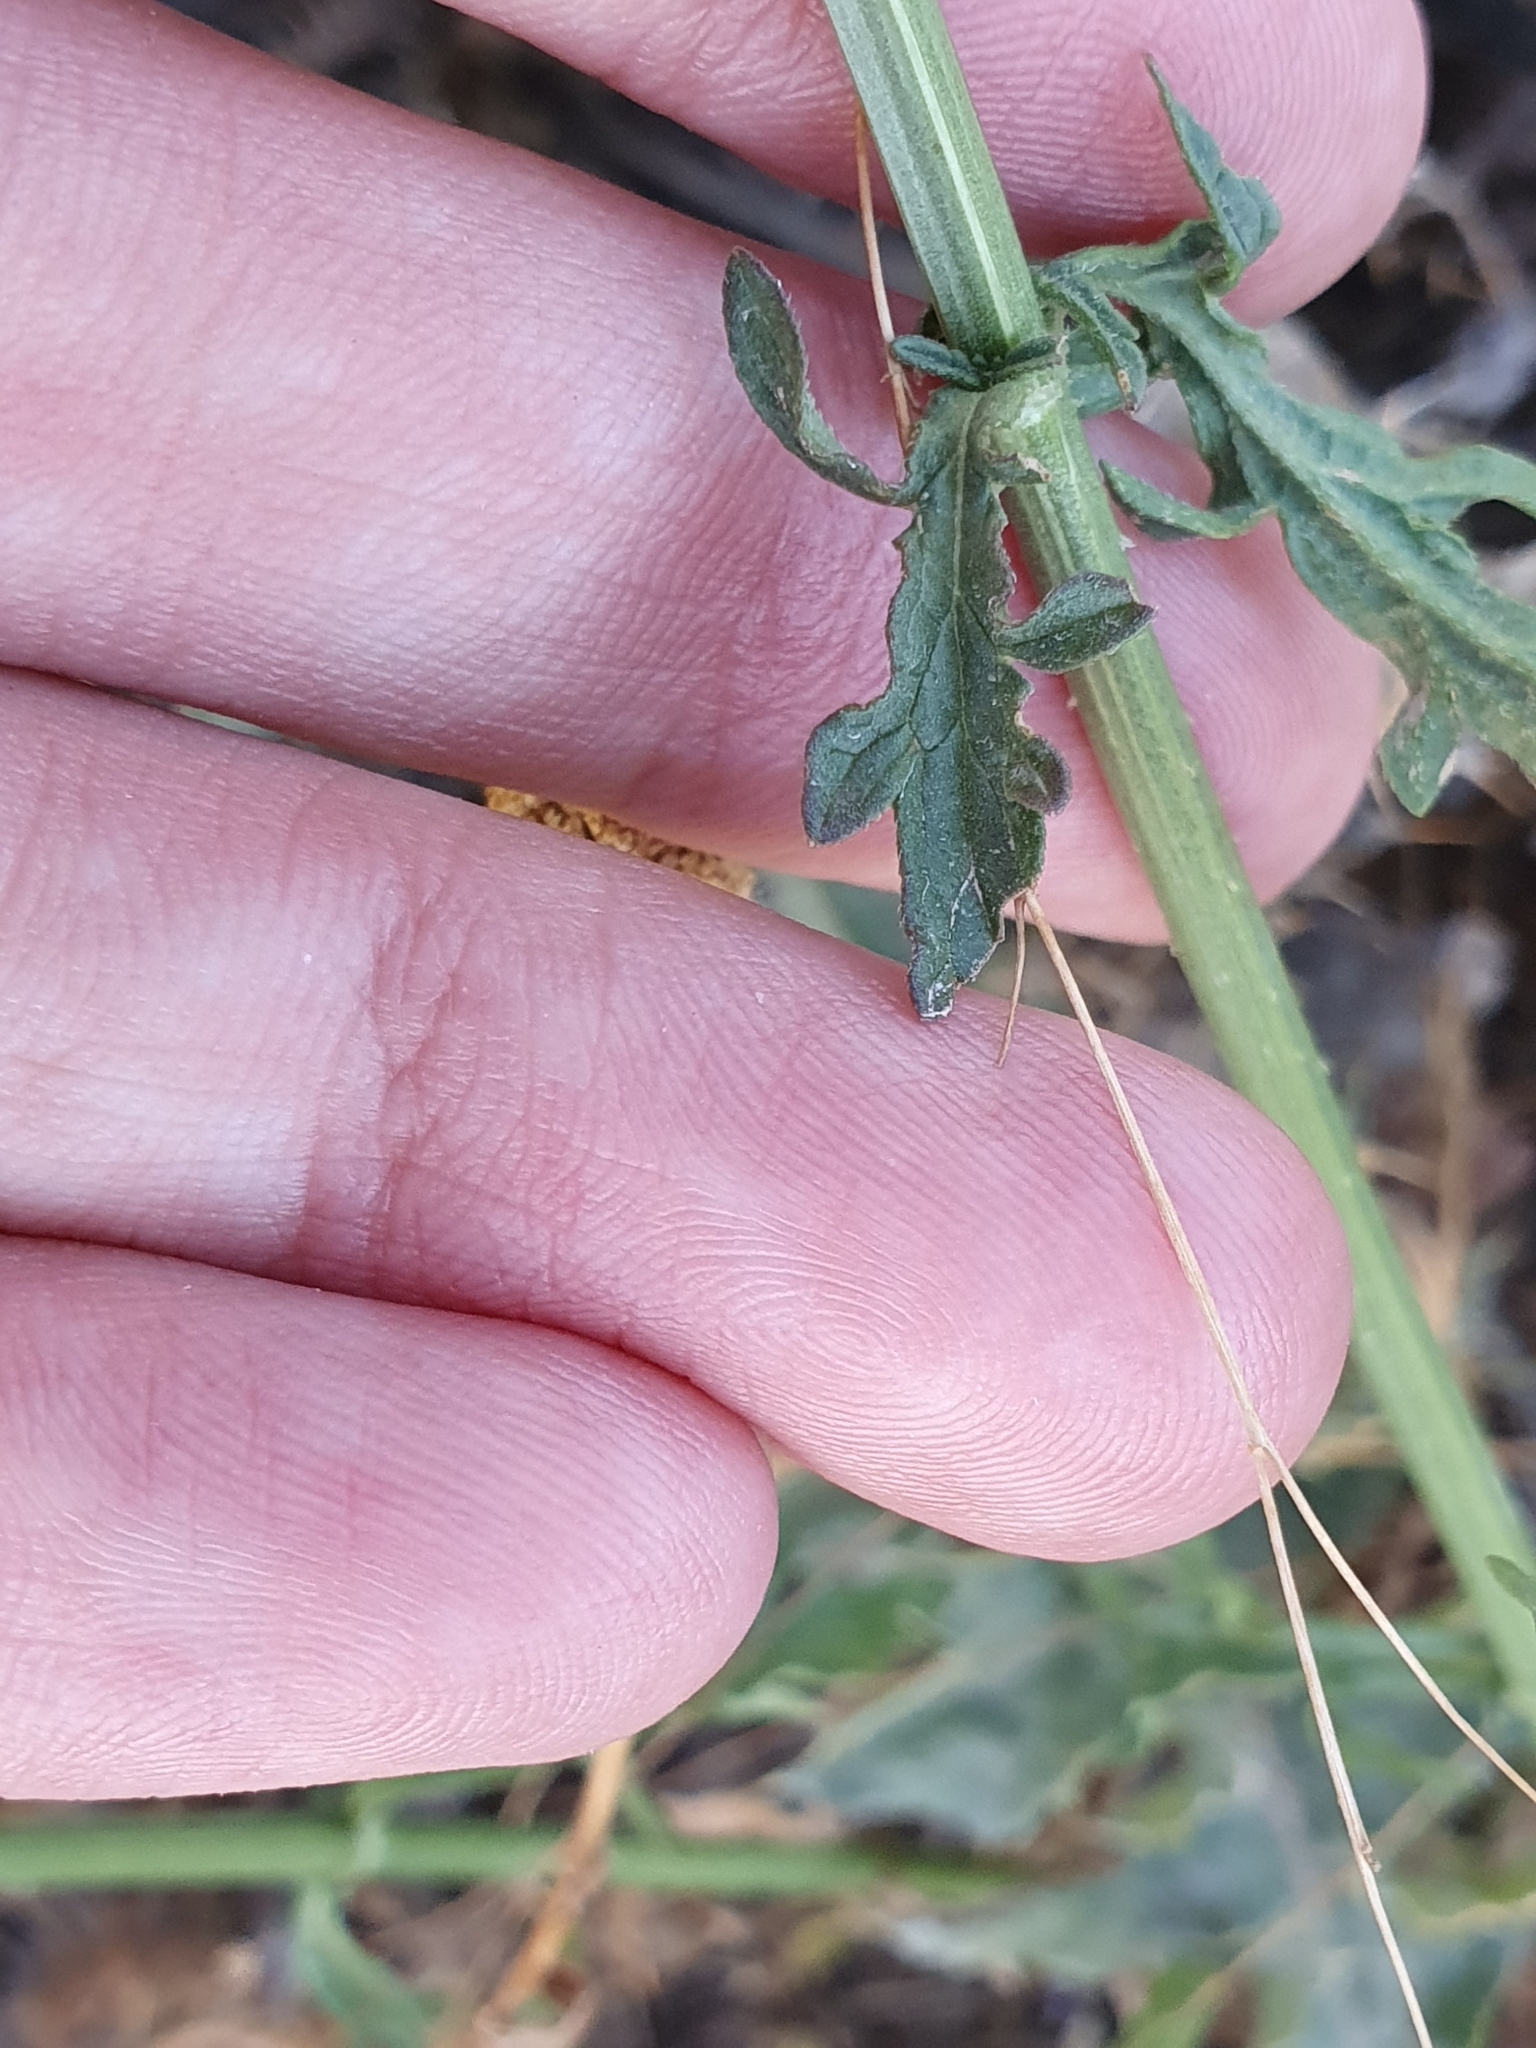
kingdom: Plantae
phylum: Tracheophyta
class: Magnoliopsida
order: Lamiales
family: Verbenaceae
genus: Verbena
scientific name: Verbena officinalis
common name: Vervain
